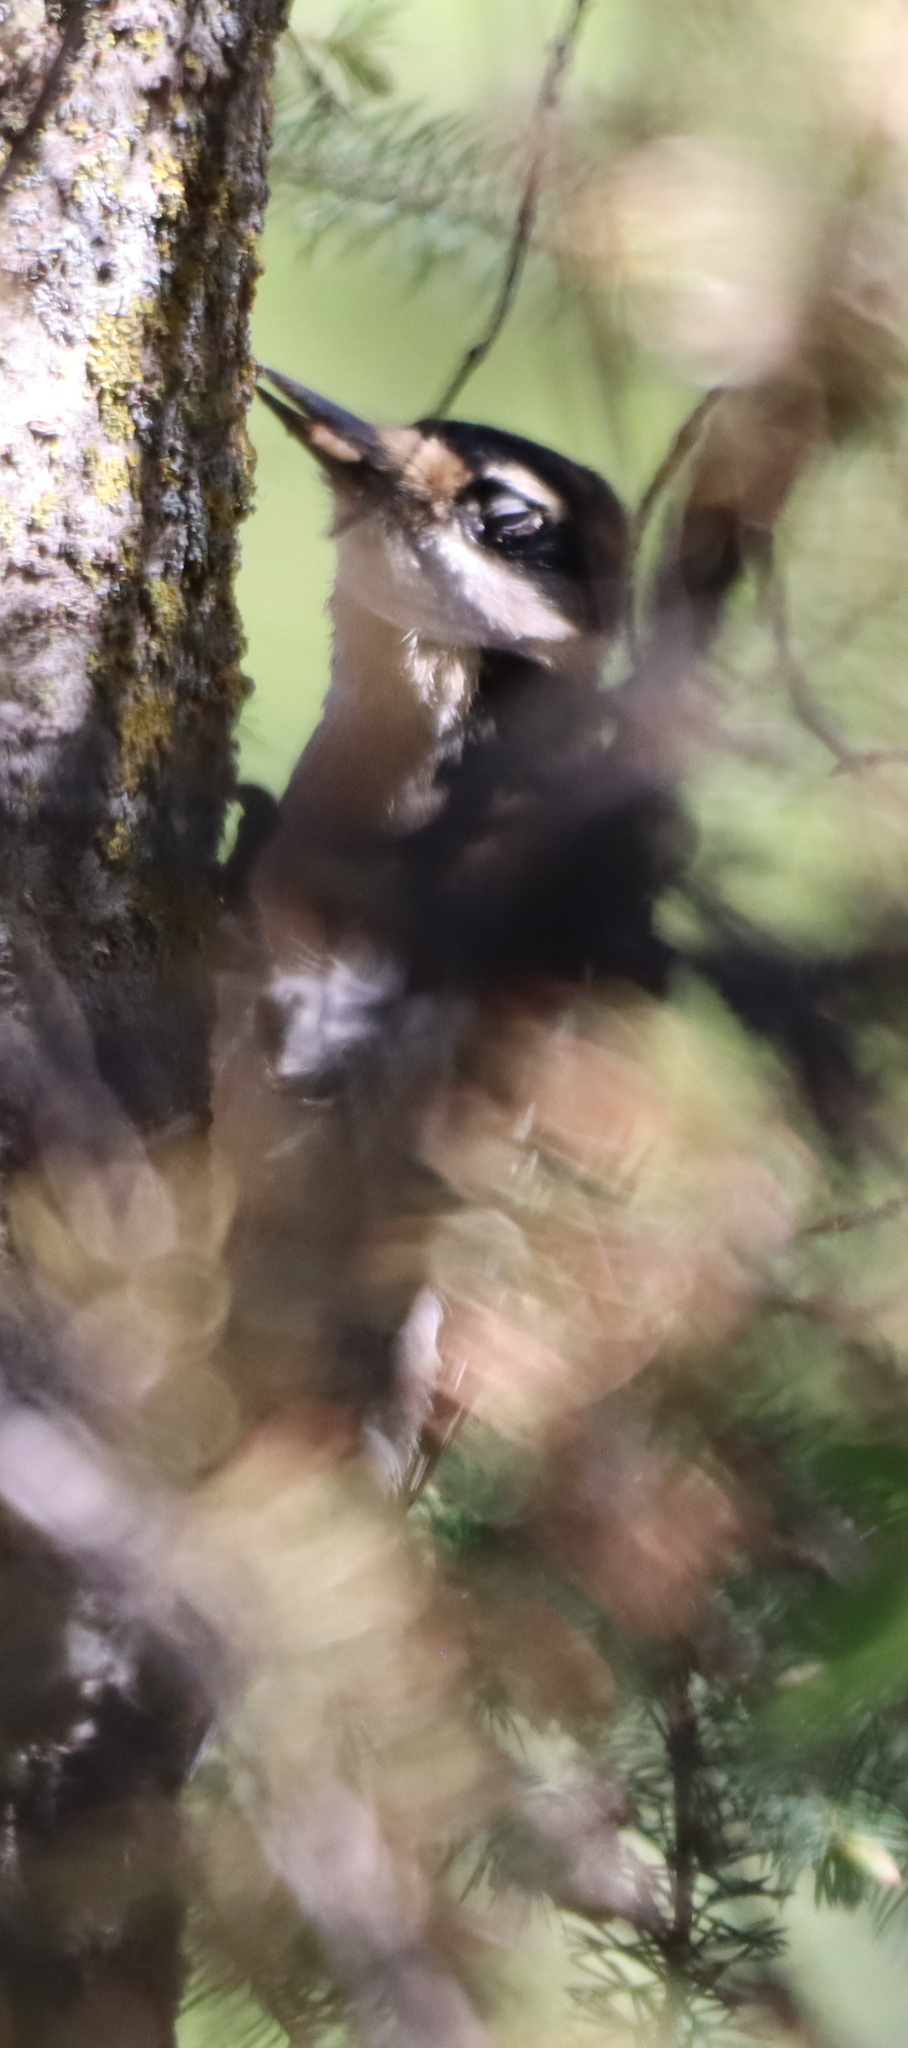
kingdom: Animalia
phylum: Chordata
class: Aves
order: Piciformes
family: Picidae
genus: Leuconotopicus
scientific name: Leuconotopicus villosus
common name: Hairy woodpecker
